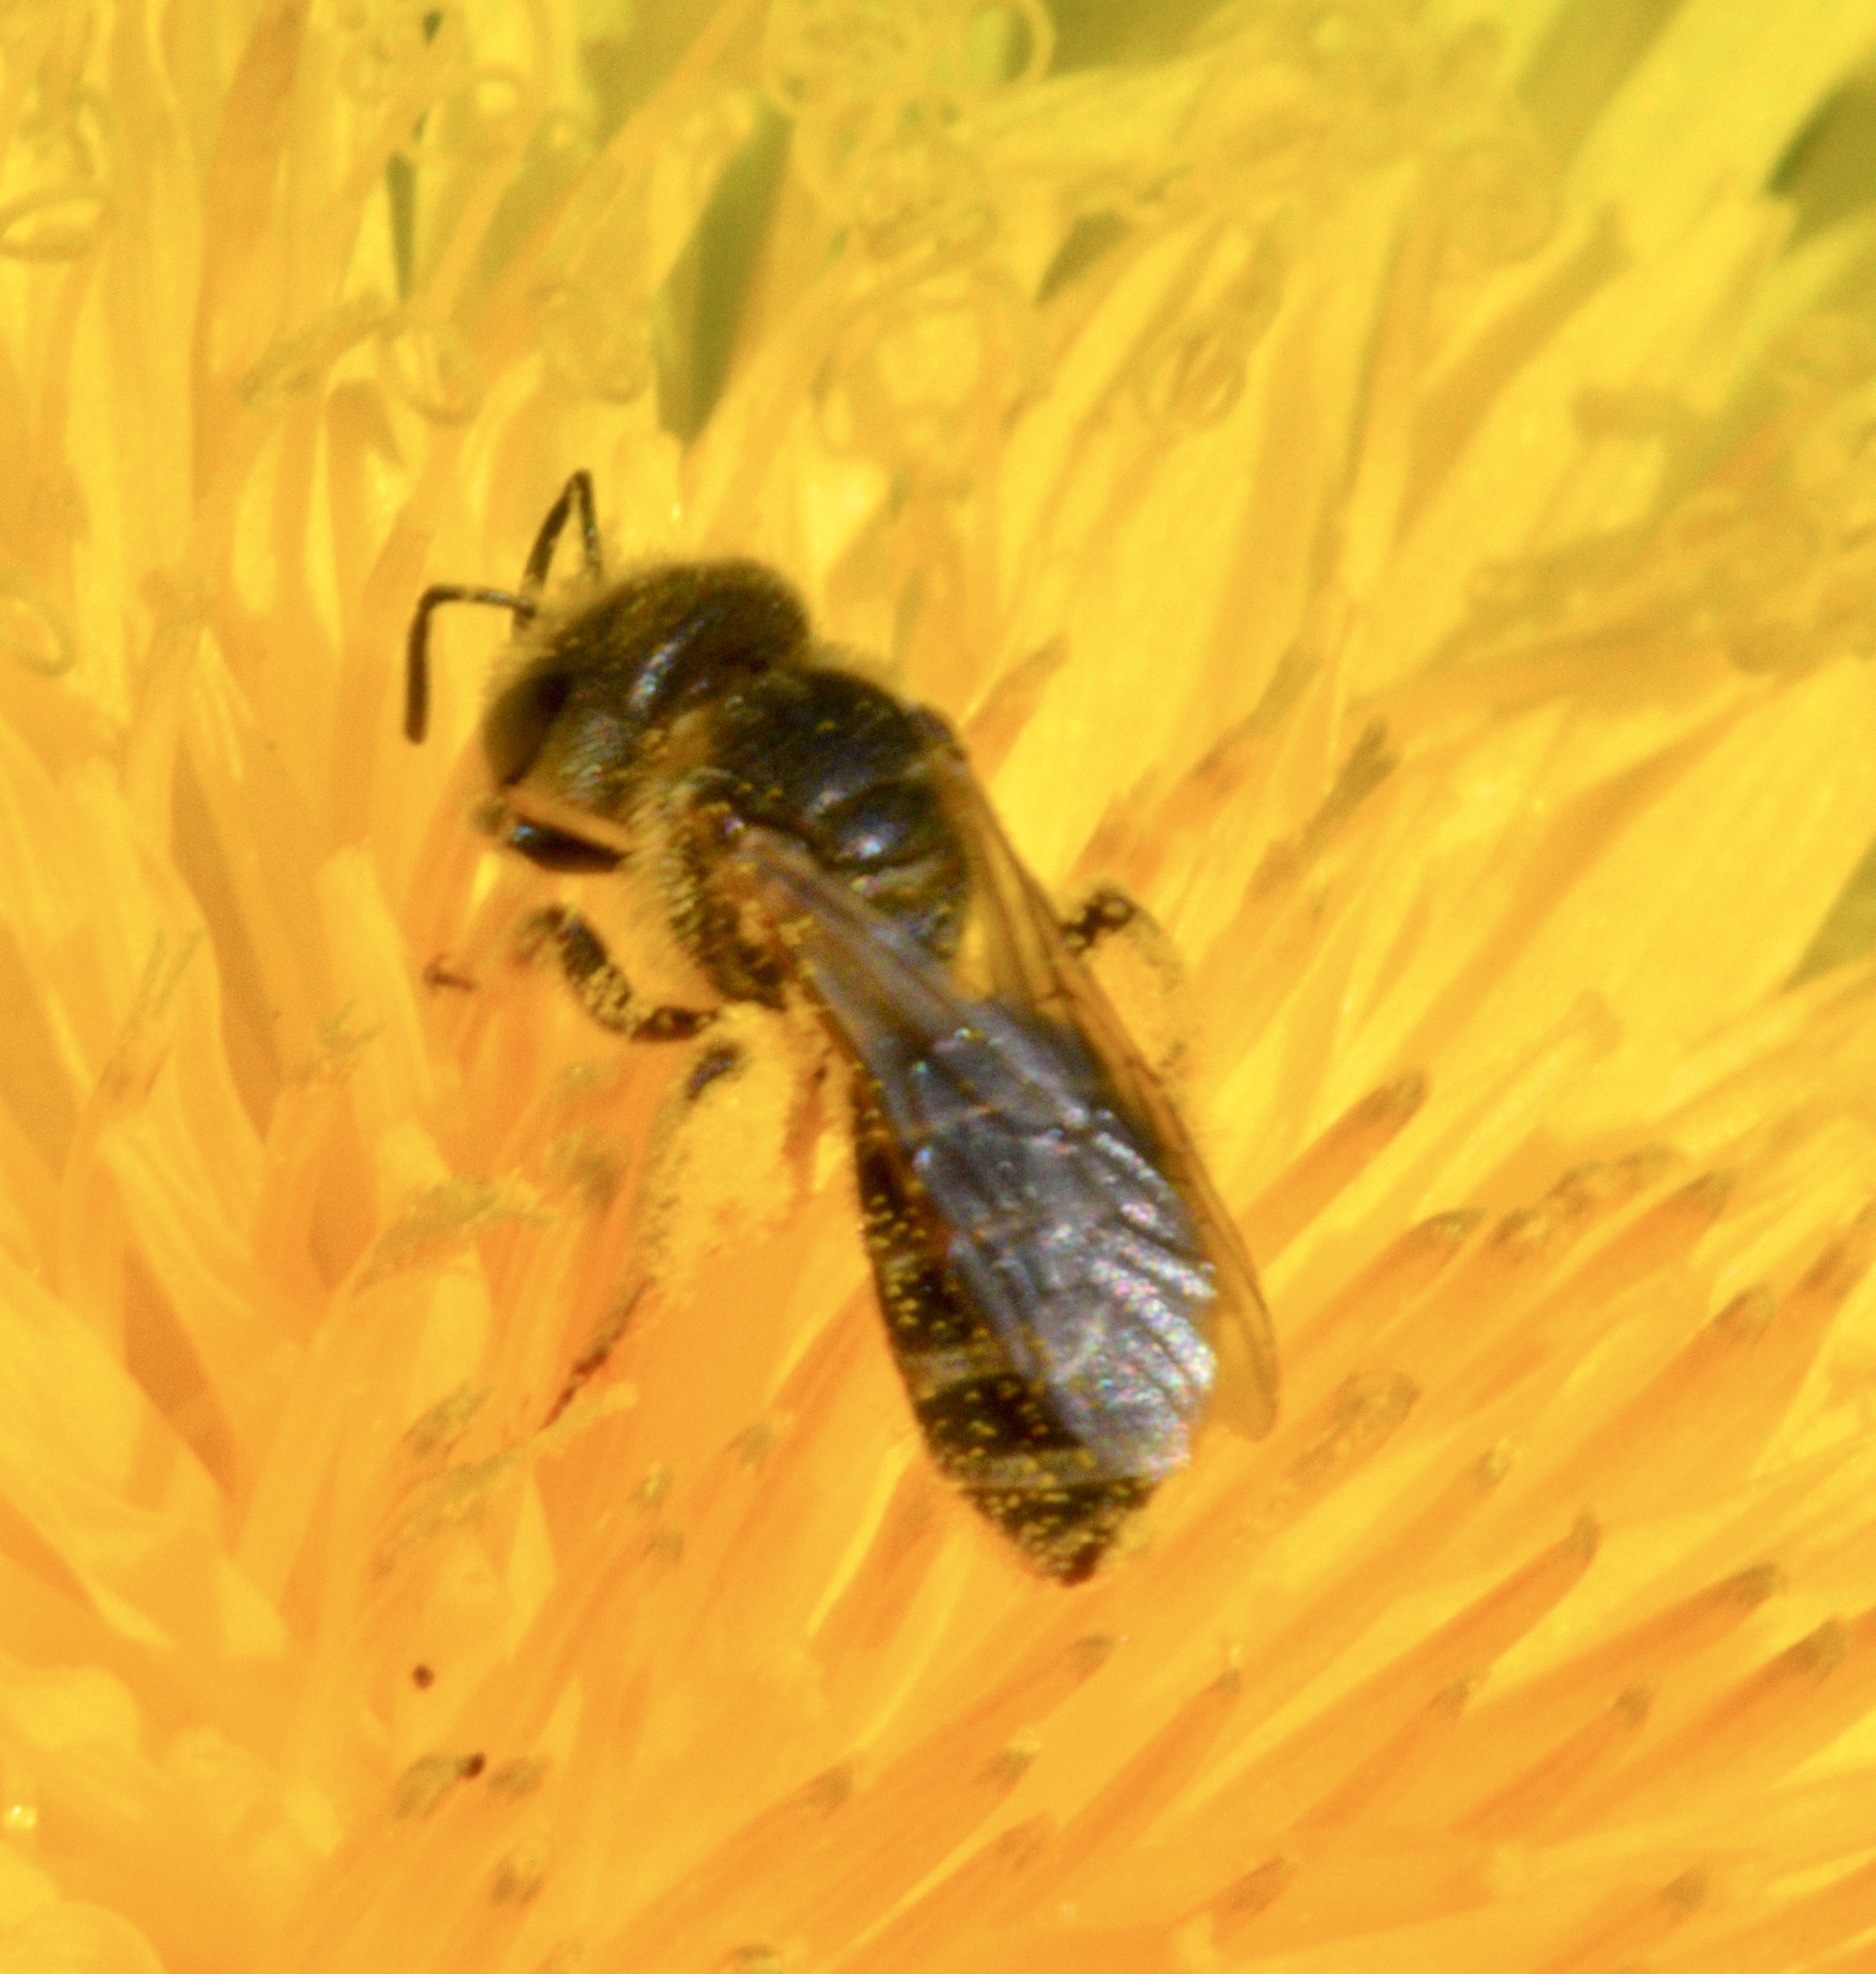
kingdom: Animalia
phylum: Arthropoda
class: Insecta
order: Hymenoptera
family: Halictidae
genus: Halictus
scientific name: Halictus ligatus
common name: Ligated furrow bee
